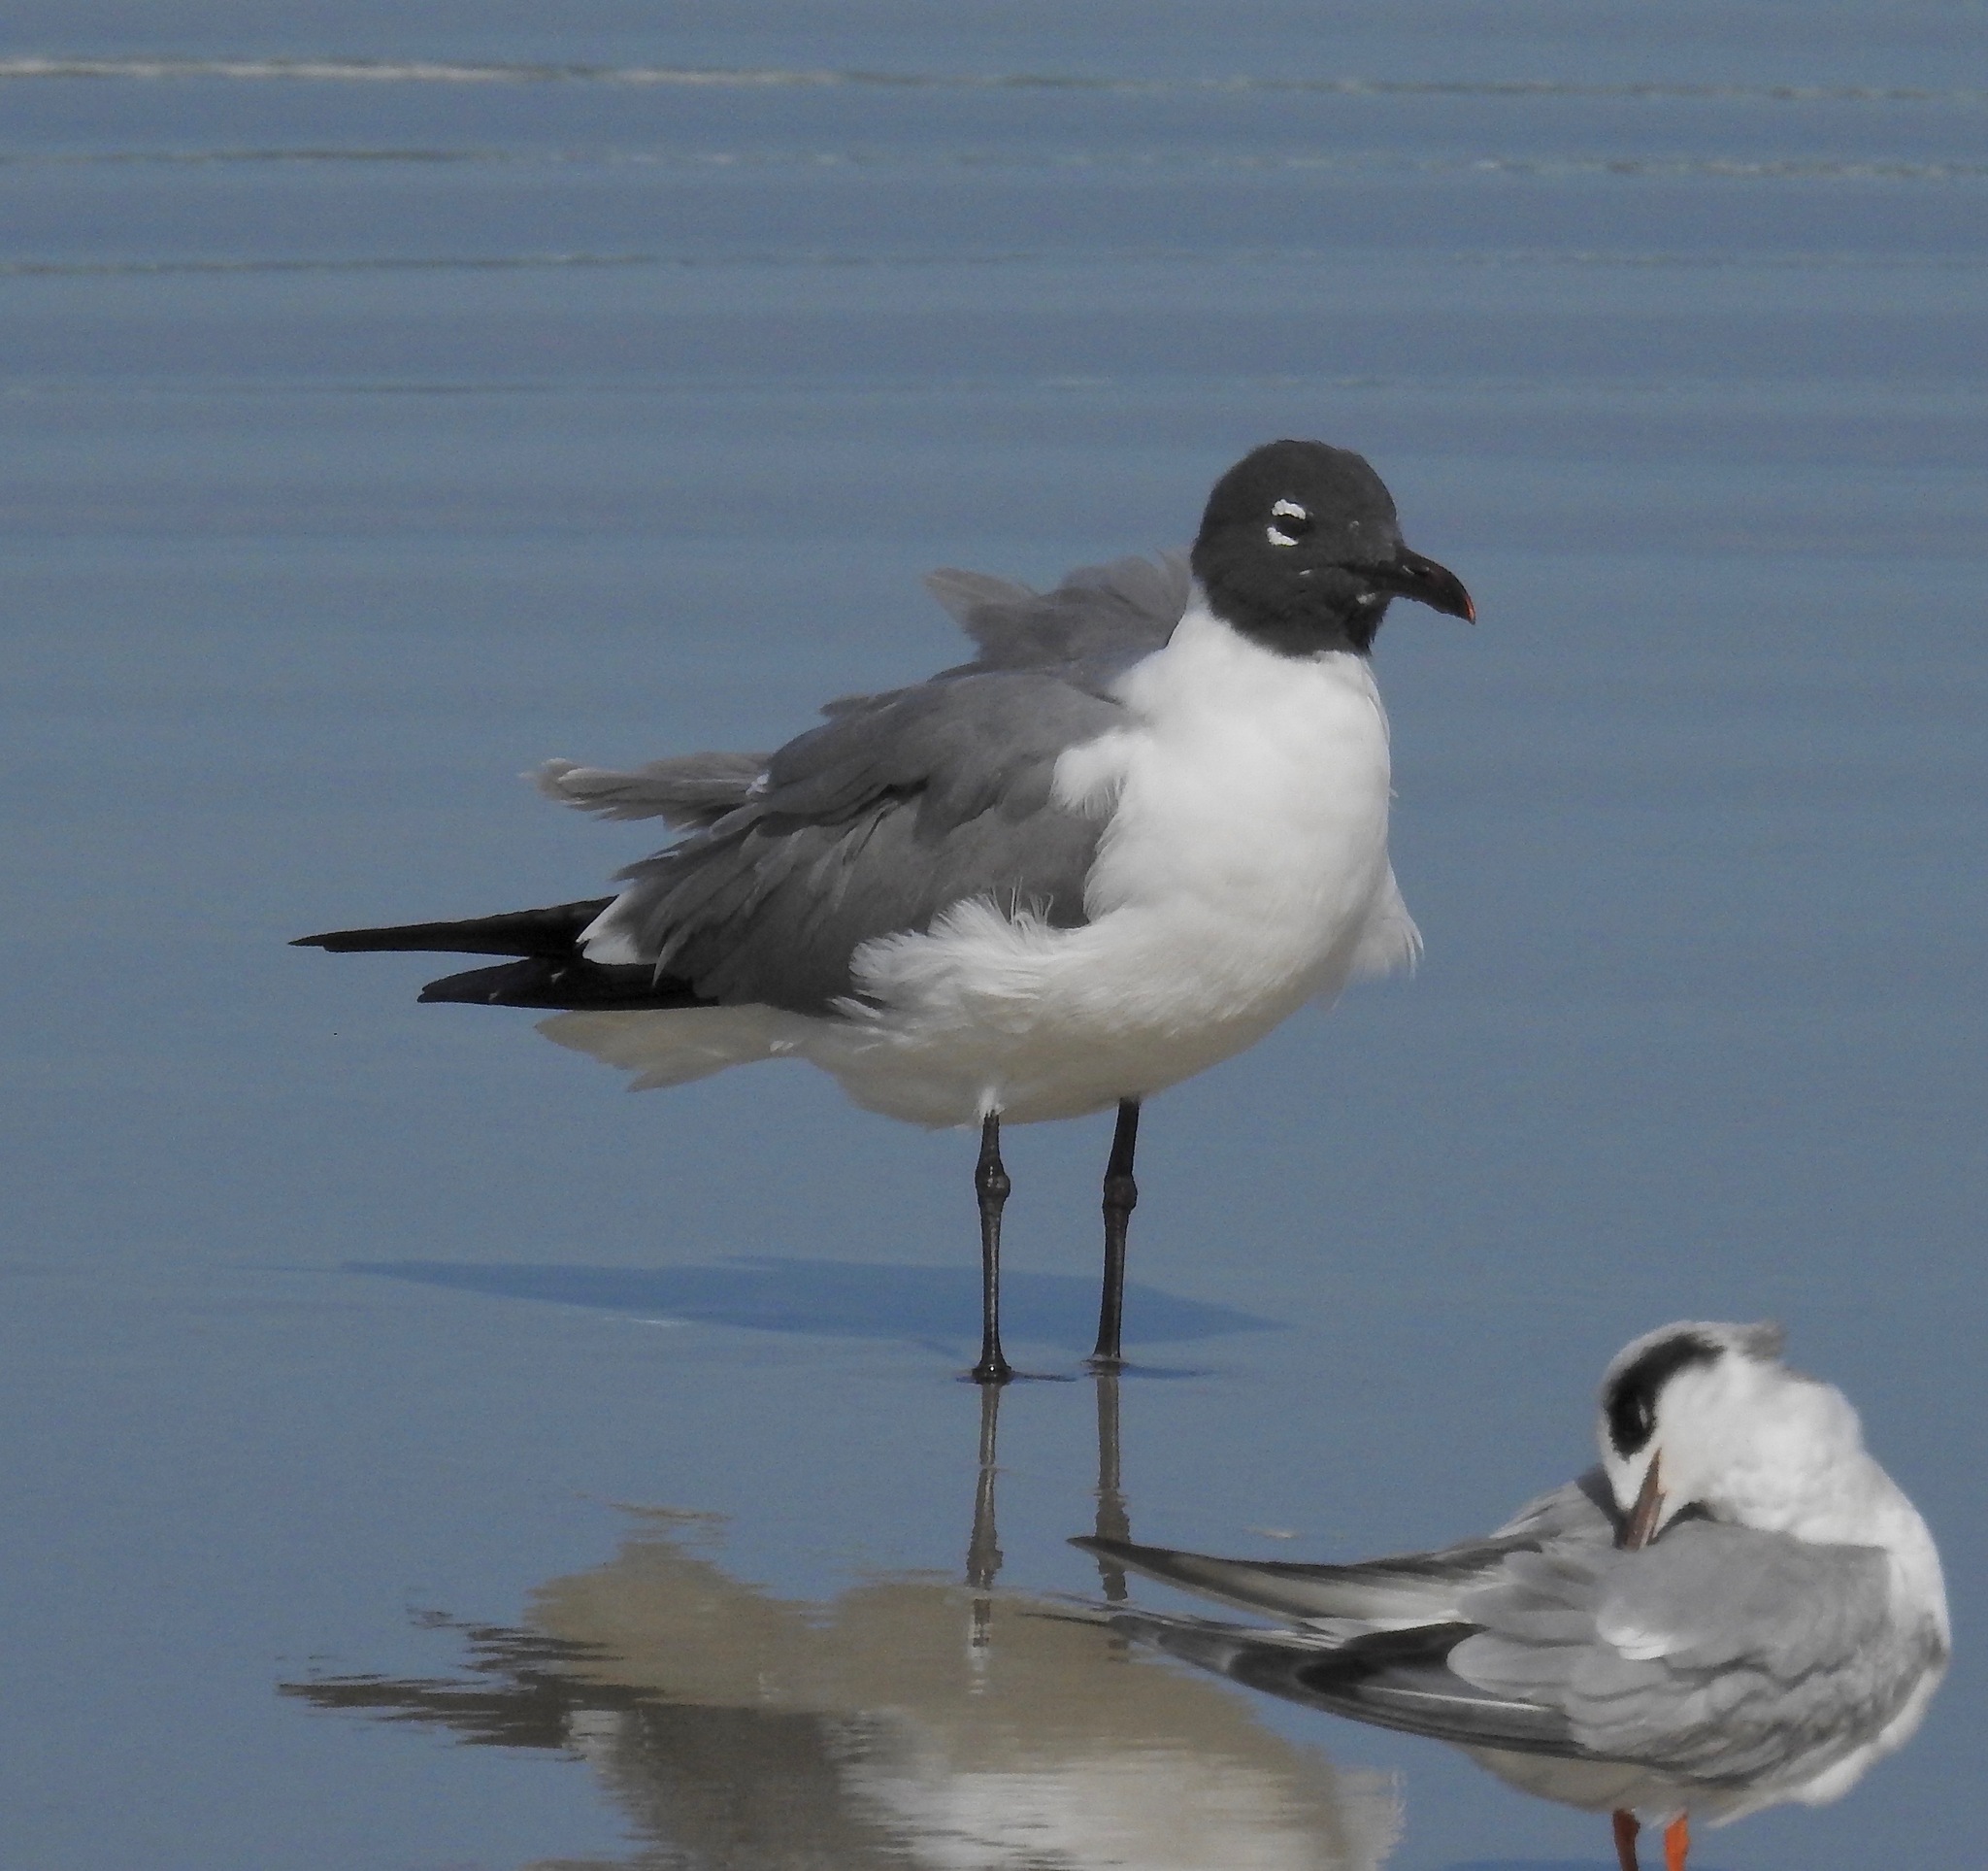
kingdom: Animalia
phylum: Chordata
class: Aves
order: Charadriiformes
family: Laridae
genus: Leucophaeus
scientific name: Leucophaeus atricilla
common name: Laughing gull
